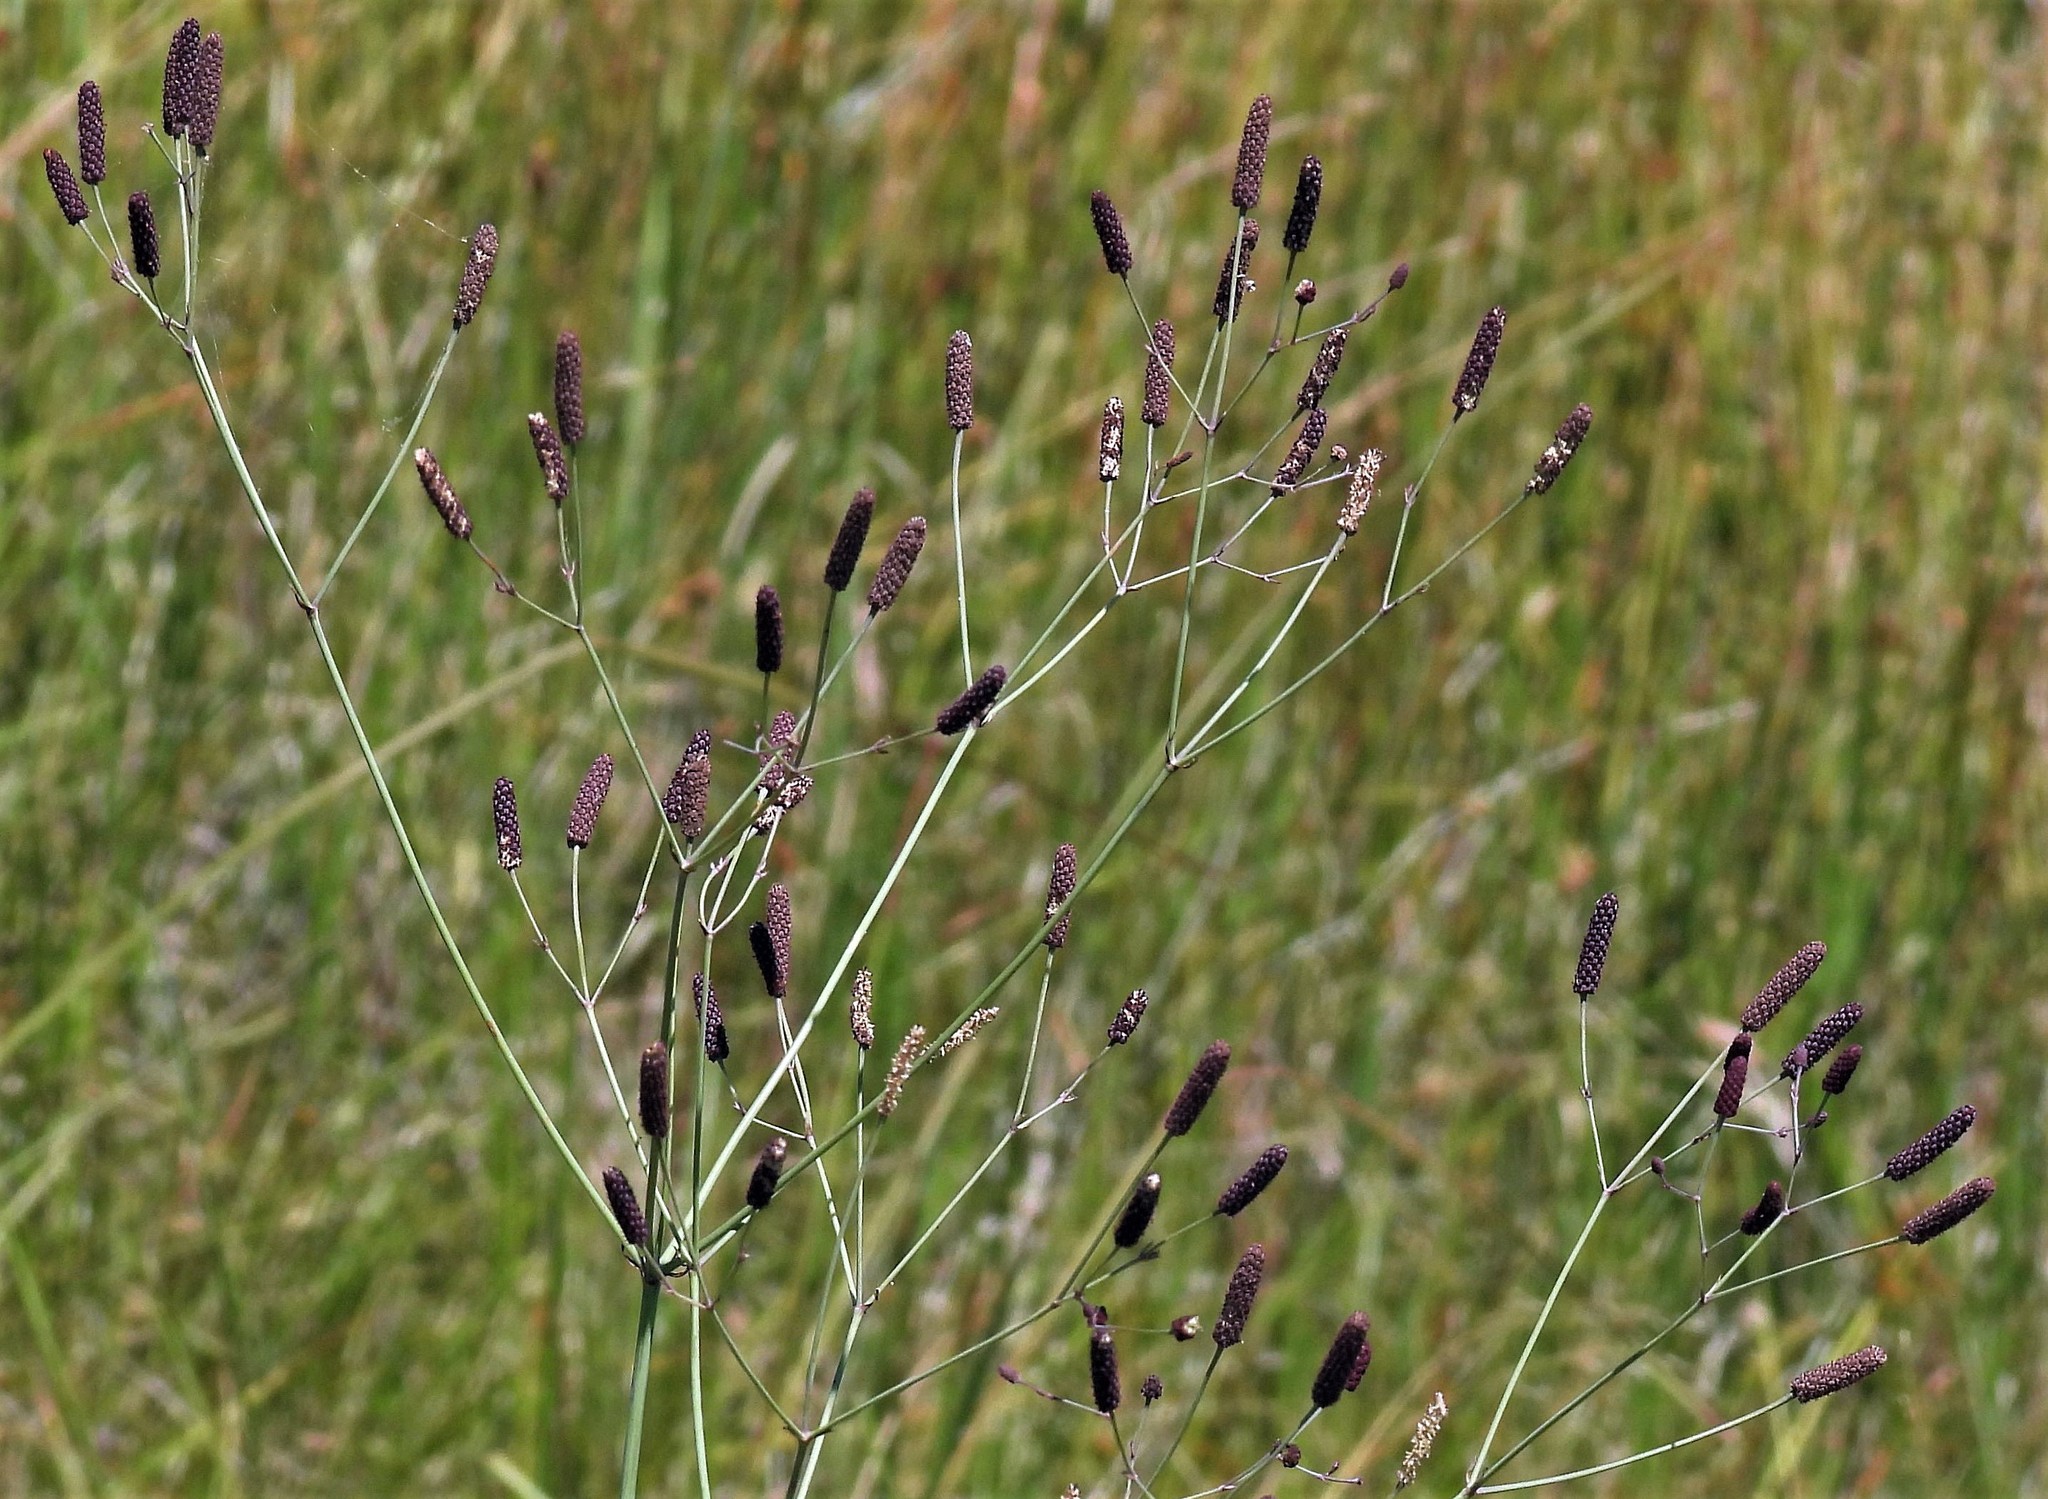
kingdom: Plantae
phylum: Tracheophyta
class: Magnoliopsida
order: Apiales
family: Apiaceae
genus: Eryngium
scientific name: Eryngium ebracteatum
